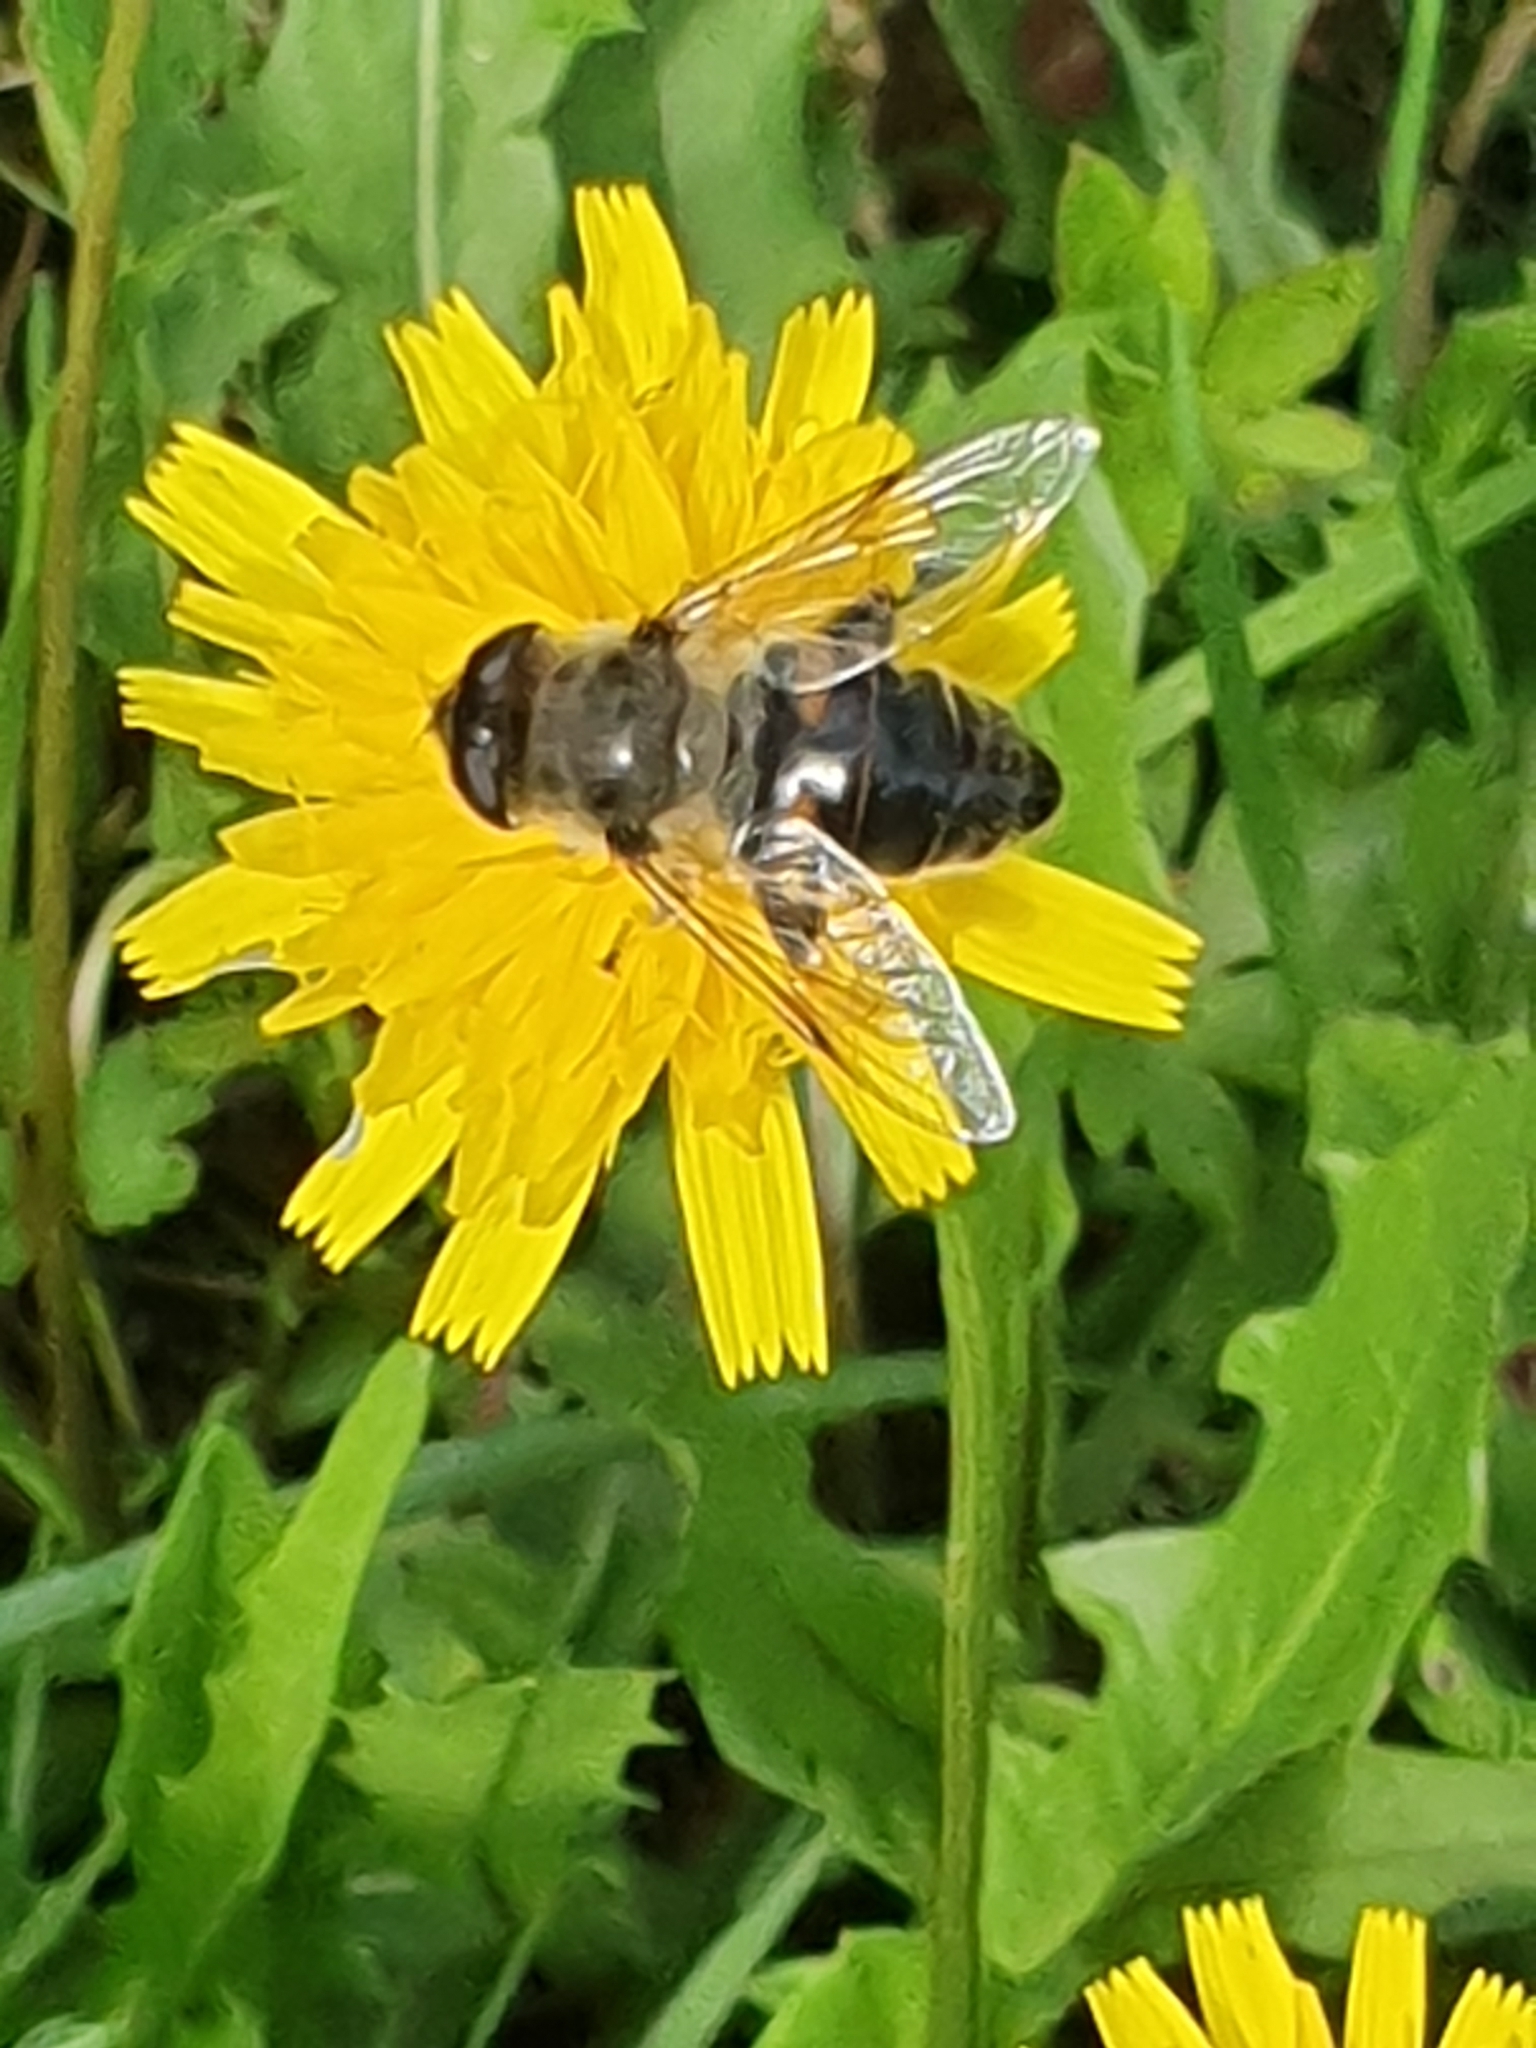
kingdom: Animalia
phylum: Arthropoda
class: Insecta
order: Diptera
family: Syrphidae
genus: Eristalis
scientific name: Eristalis tenax
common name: Drone fly
